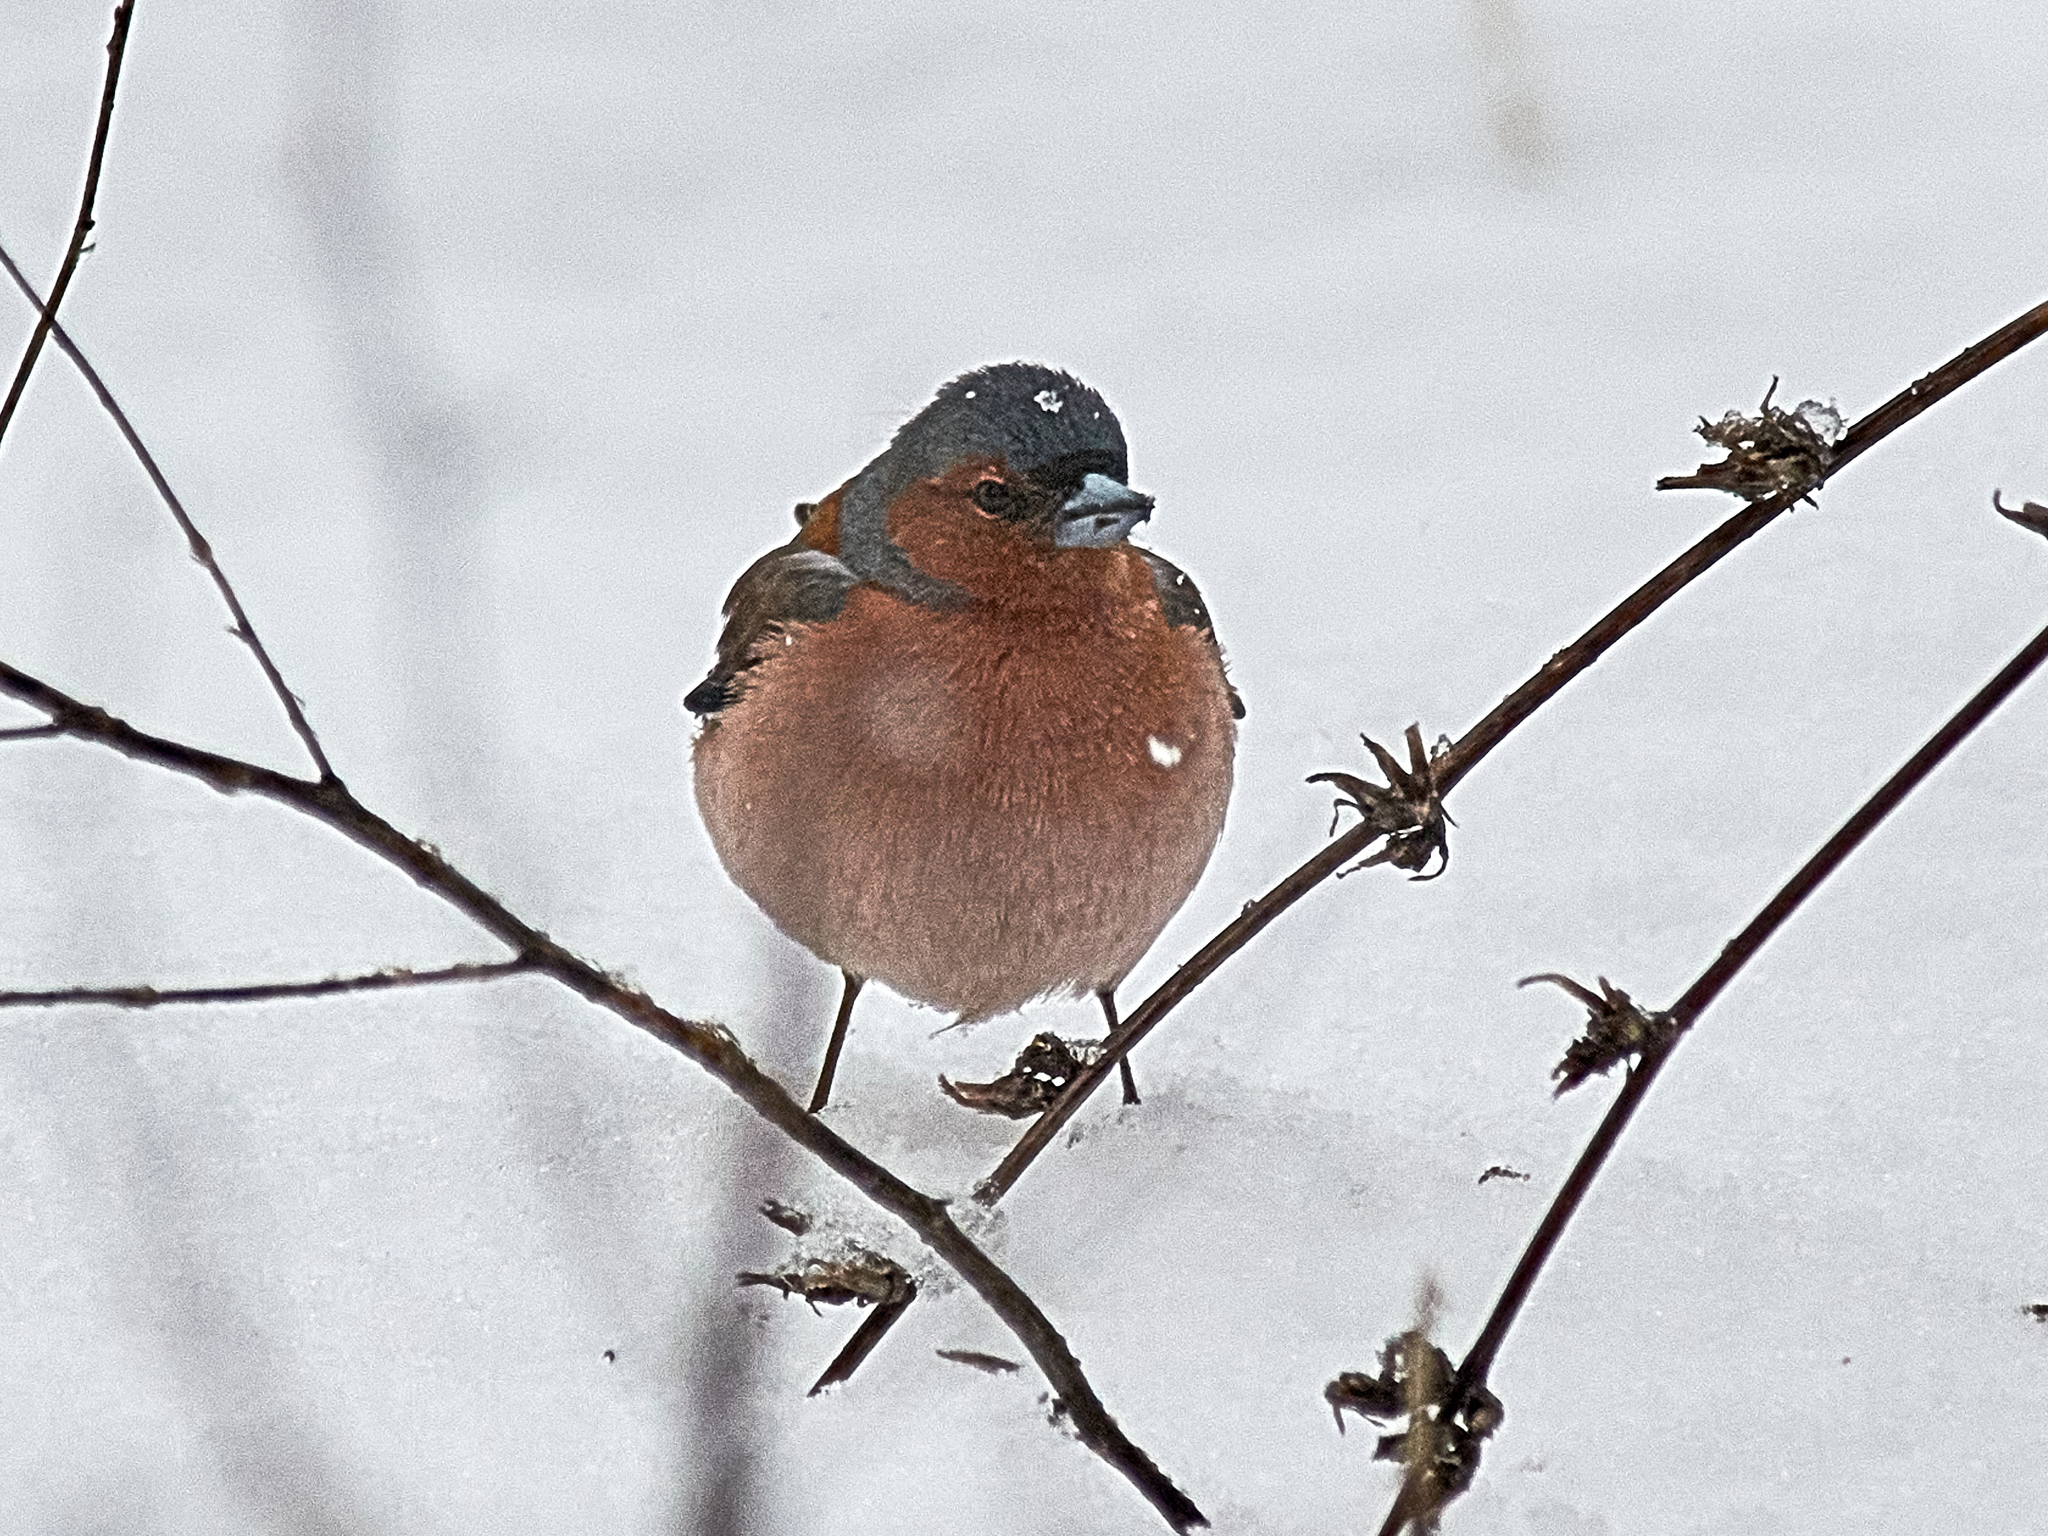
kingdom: Animalia
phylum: Chordata
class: Aves
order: Passeriformes
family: Fringillidae
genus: Fringilla
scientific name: Fringilla coelebs
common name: Common chaffinch
